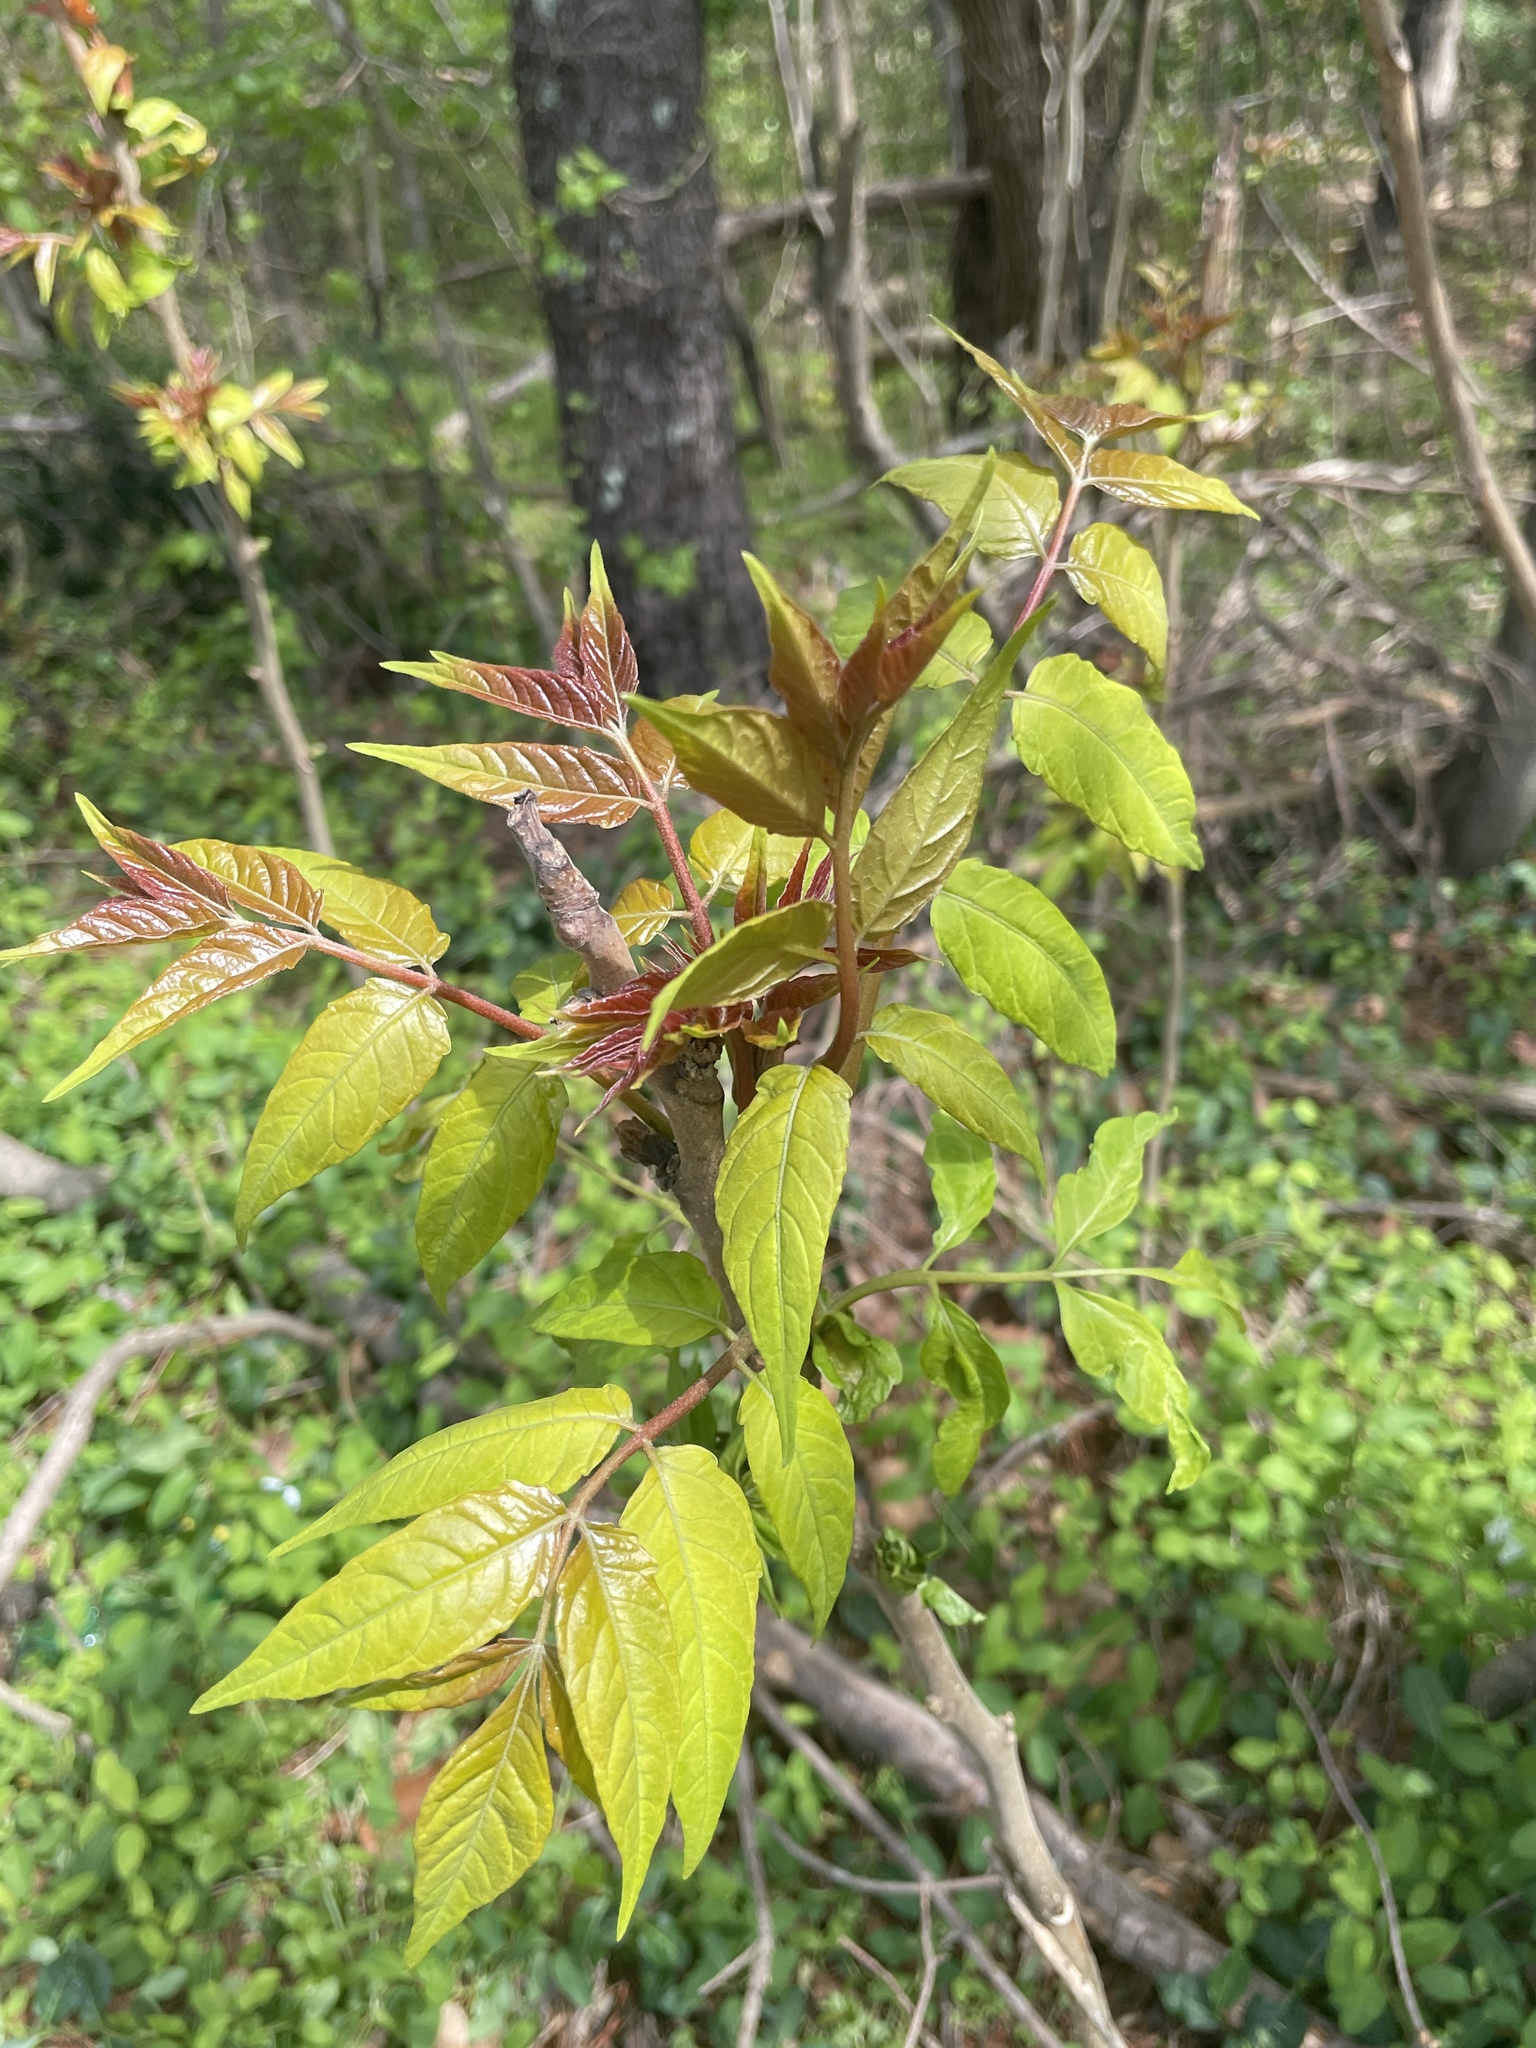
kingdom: Plantae
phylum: Tracheophyta
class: Magnoliopsida
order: Sapindales
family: Simaroubaceae
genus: Ailanthus
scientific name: Ailanthus altissima
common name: Tree-of-heaven
